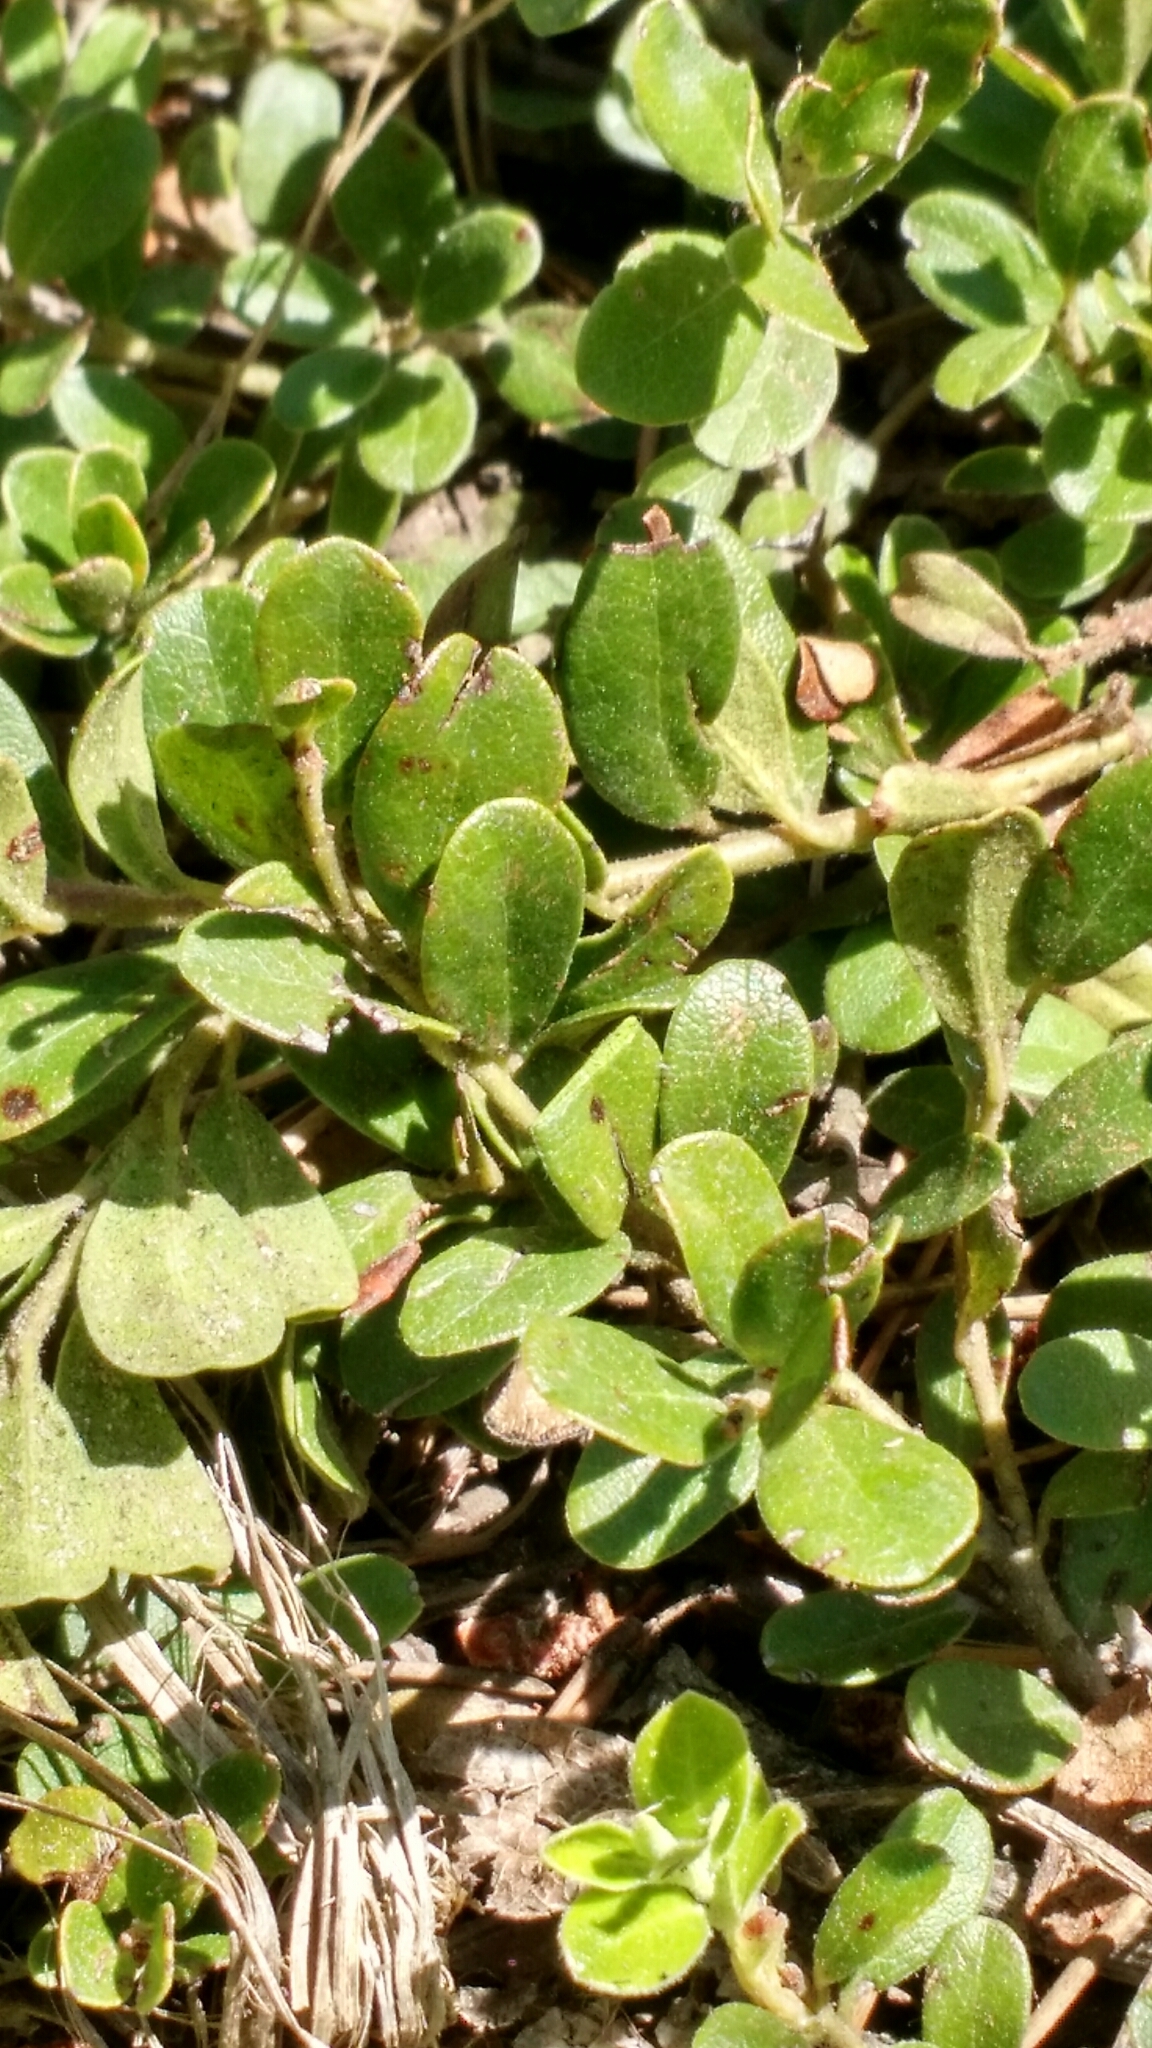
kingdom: Plantae
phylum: Tracheophyta
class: Magnoliopsida
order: Ericales
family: Ericaceae
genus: Arctostaphylos
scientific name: Arctostaphylos uva-ursi
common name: Bearberry
